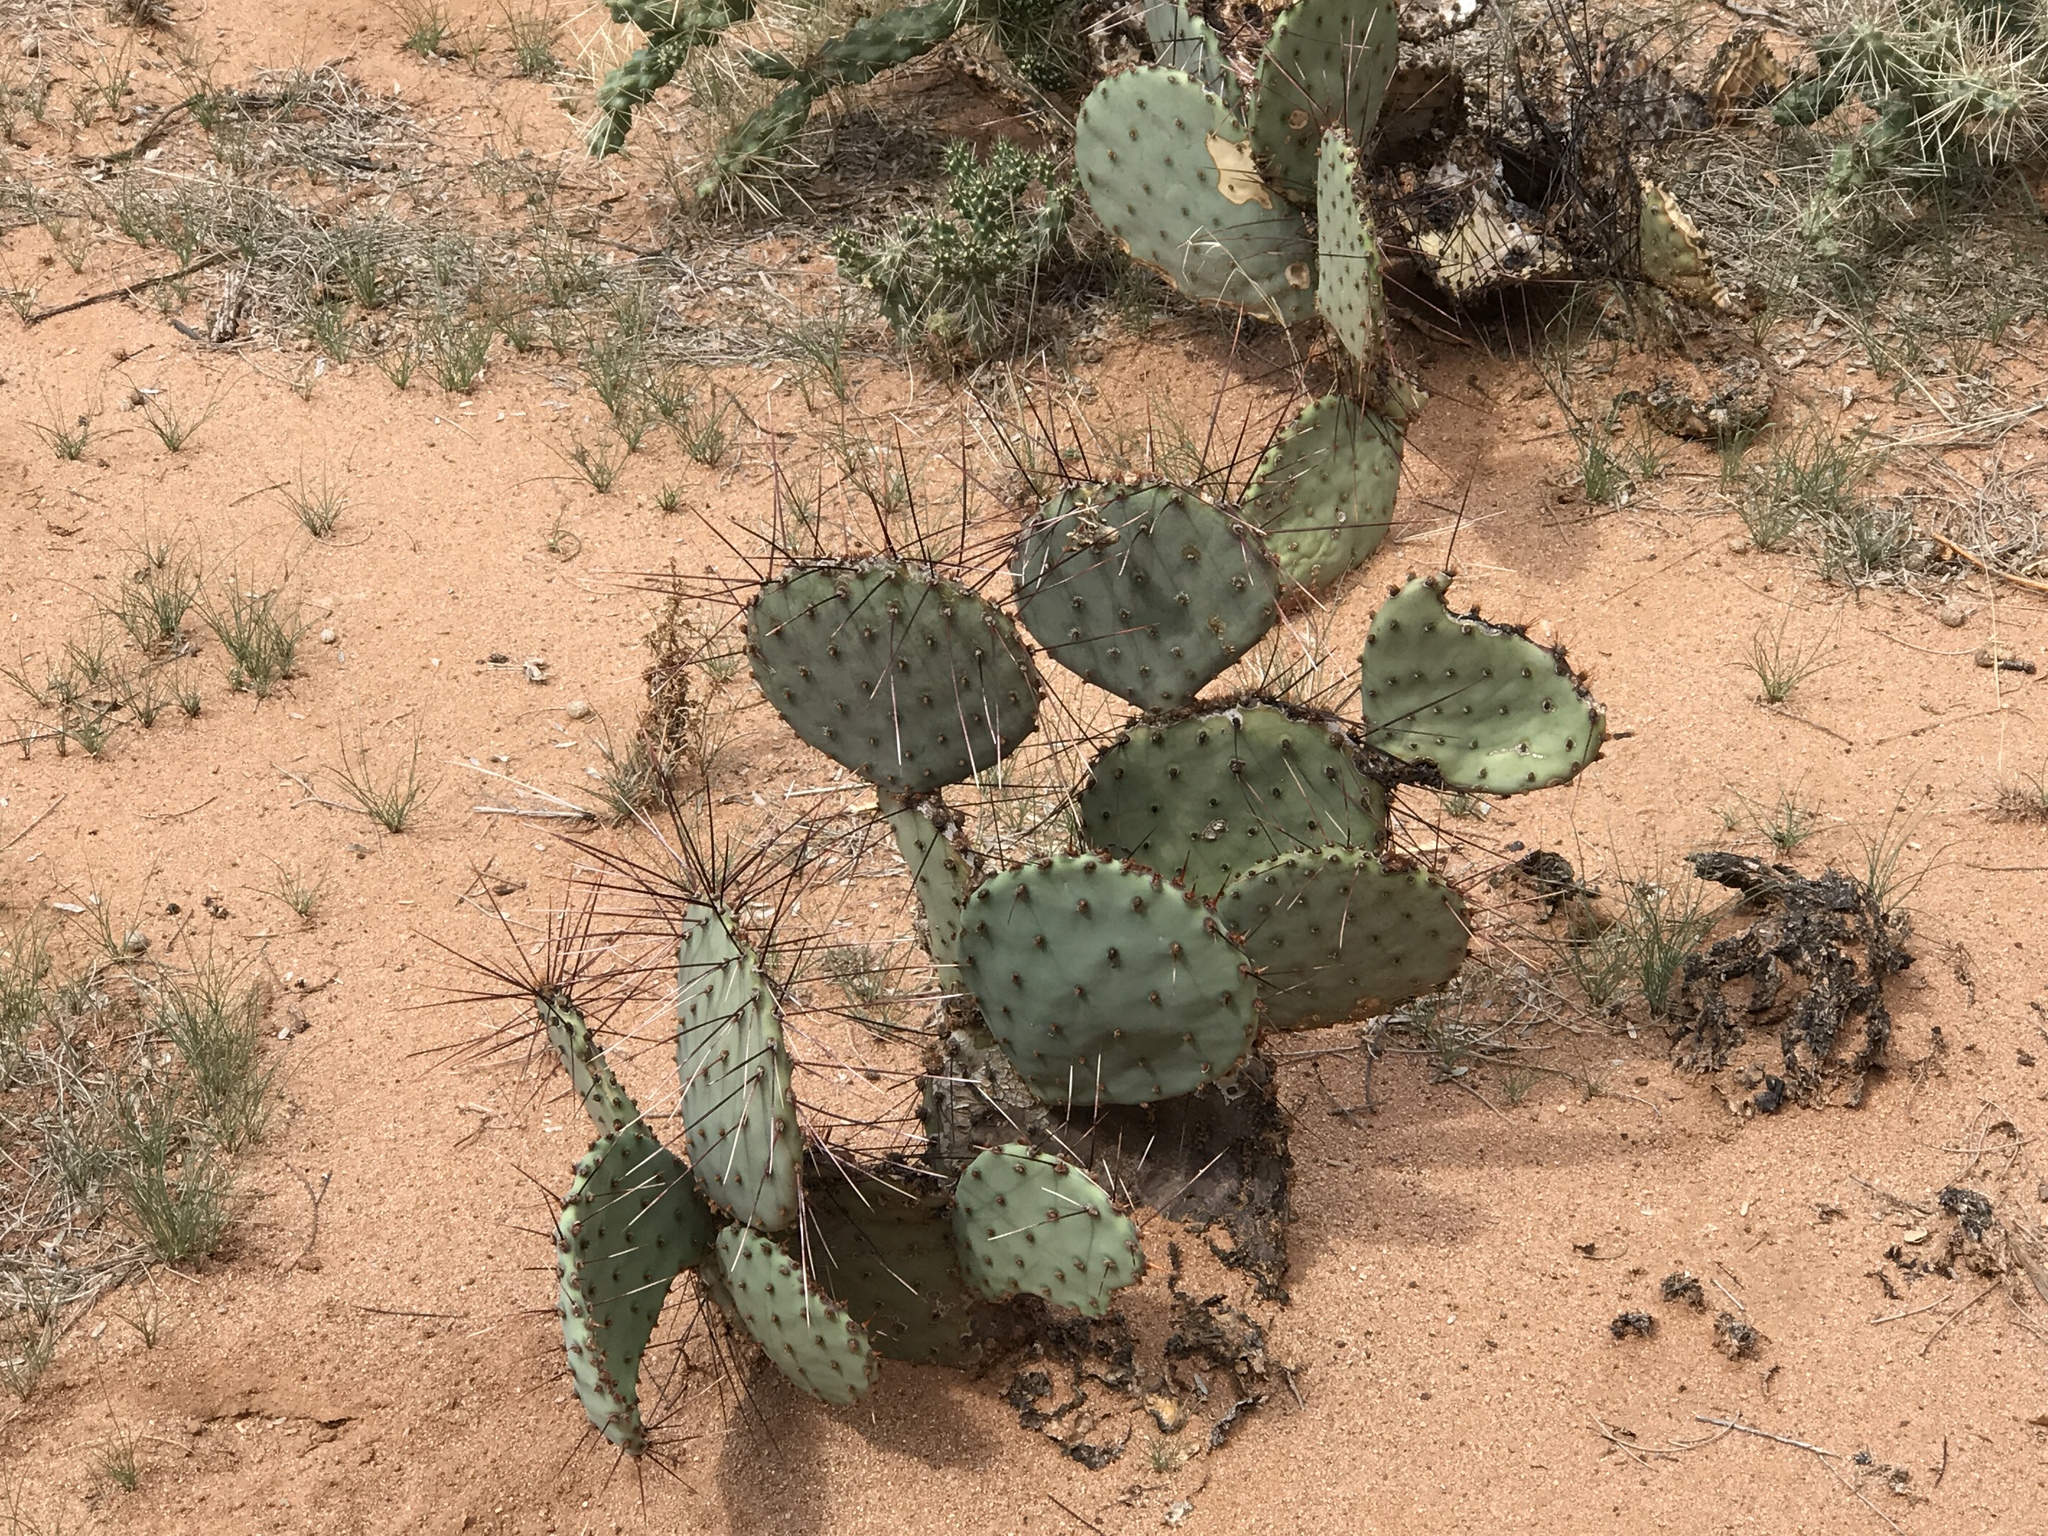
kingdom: Plantae
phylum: Tracheophyta
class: Magnoliopsida
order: Caryophyllales
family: Cactaceae
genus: Opuntia
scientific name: Opuntia macrocentra
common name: Purple prickly-pear
